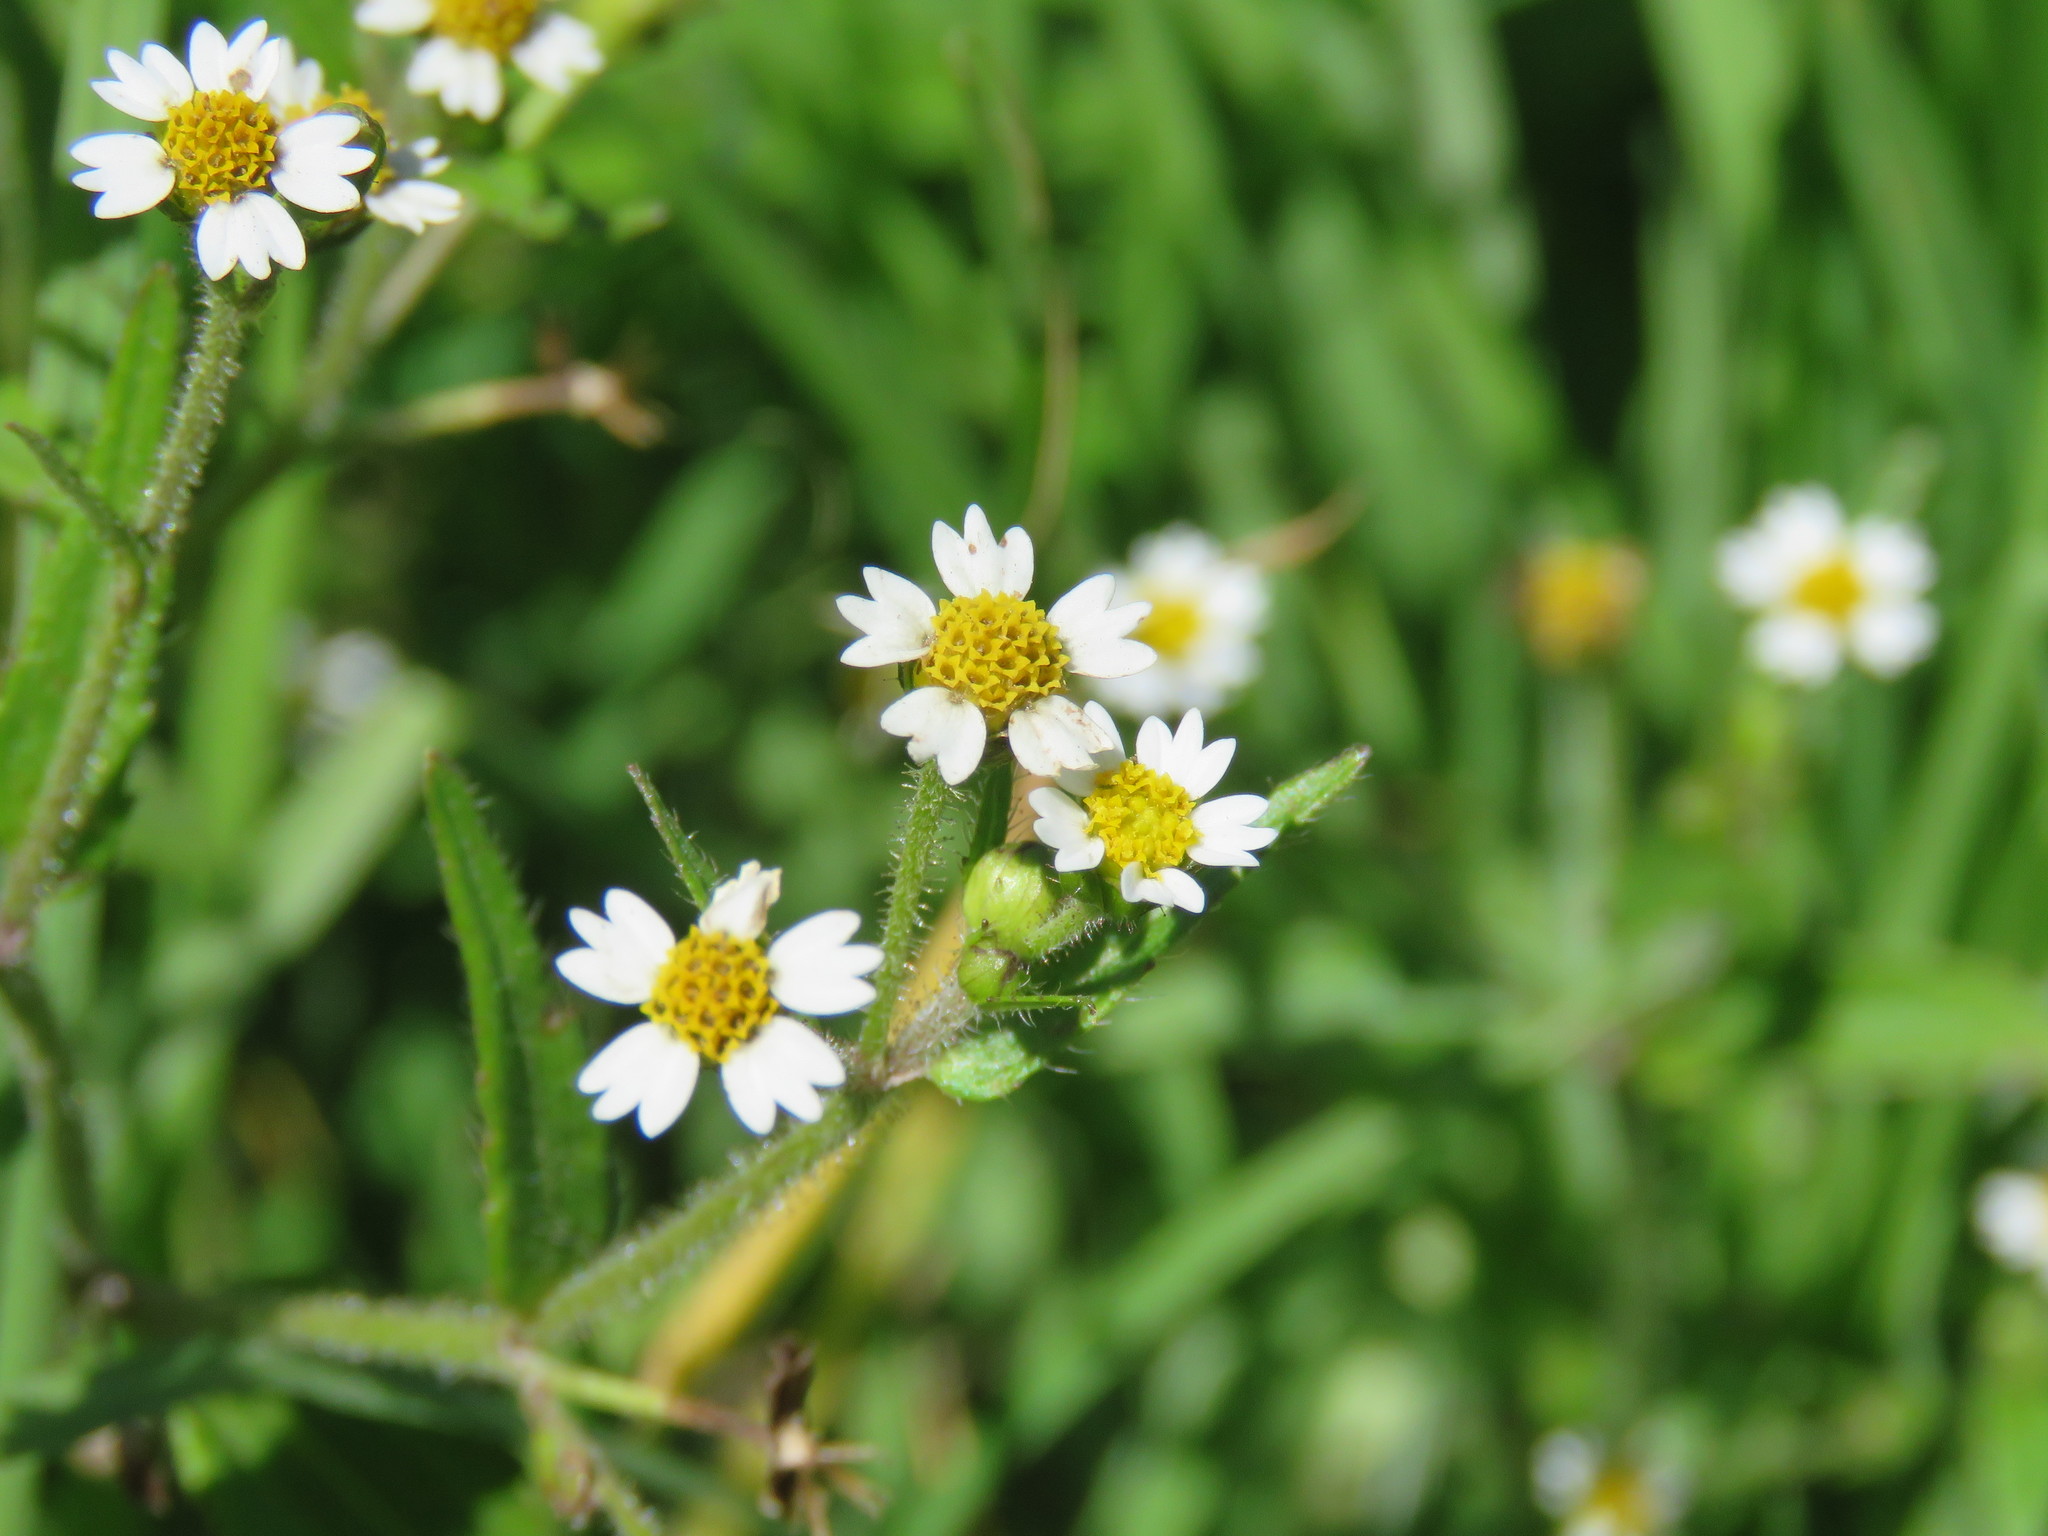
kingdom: Plantae
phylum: Tracheophyta
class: Magnoliopsida
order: Asterales
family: Asteraceae
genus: Galinsoga
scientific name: Galinsoga quadriradiata
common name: Shaggy soldier
